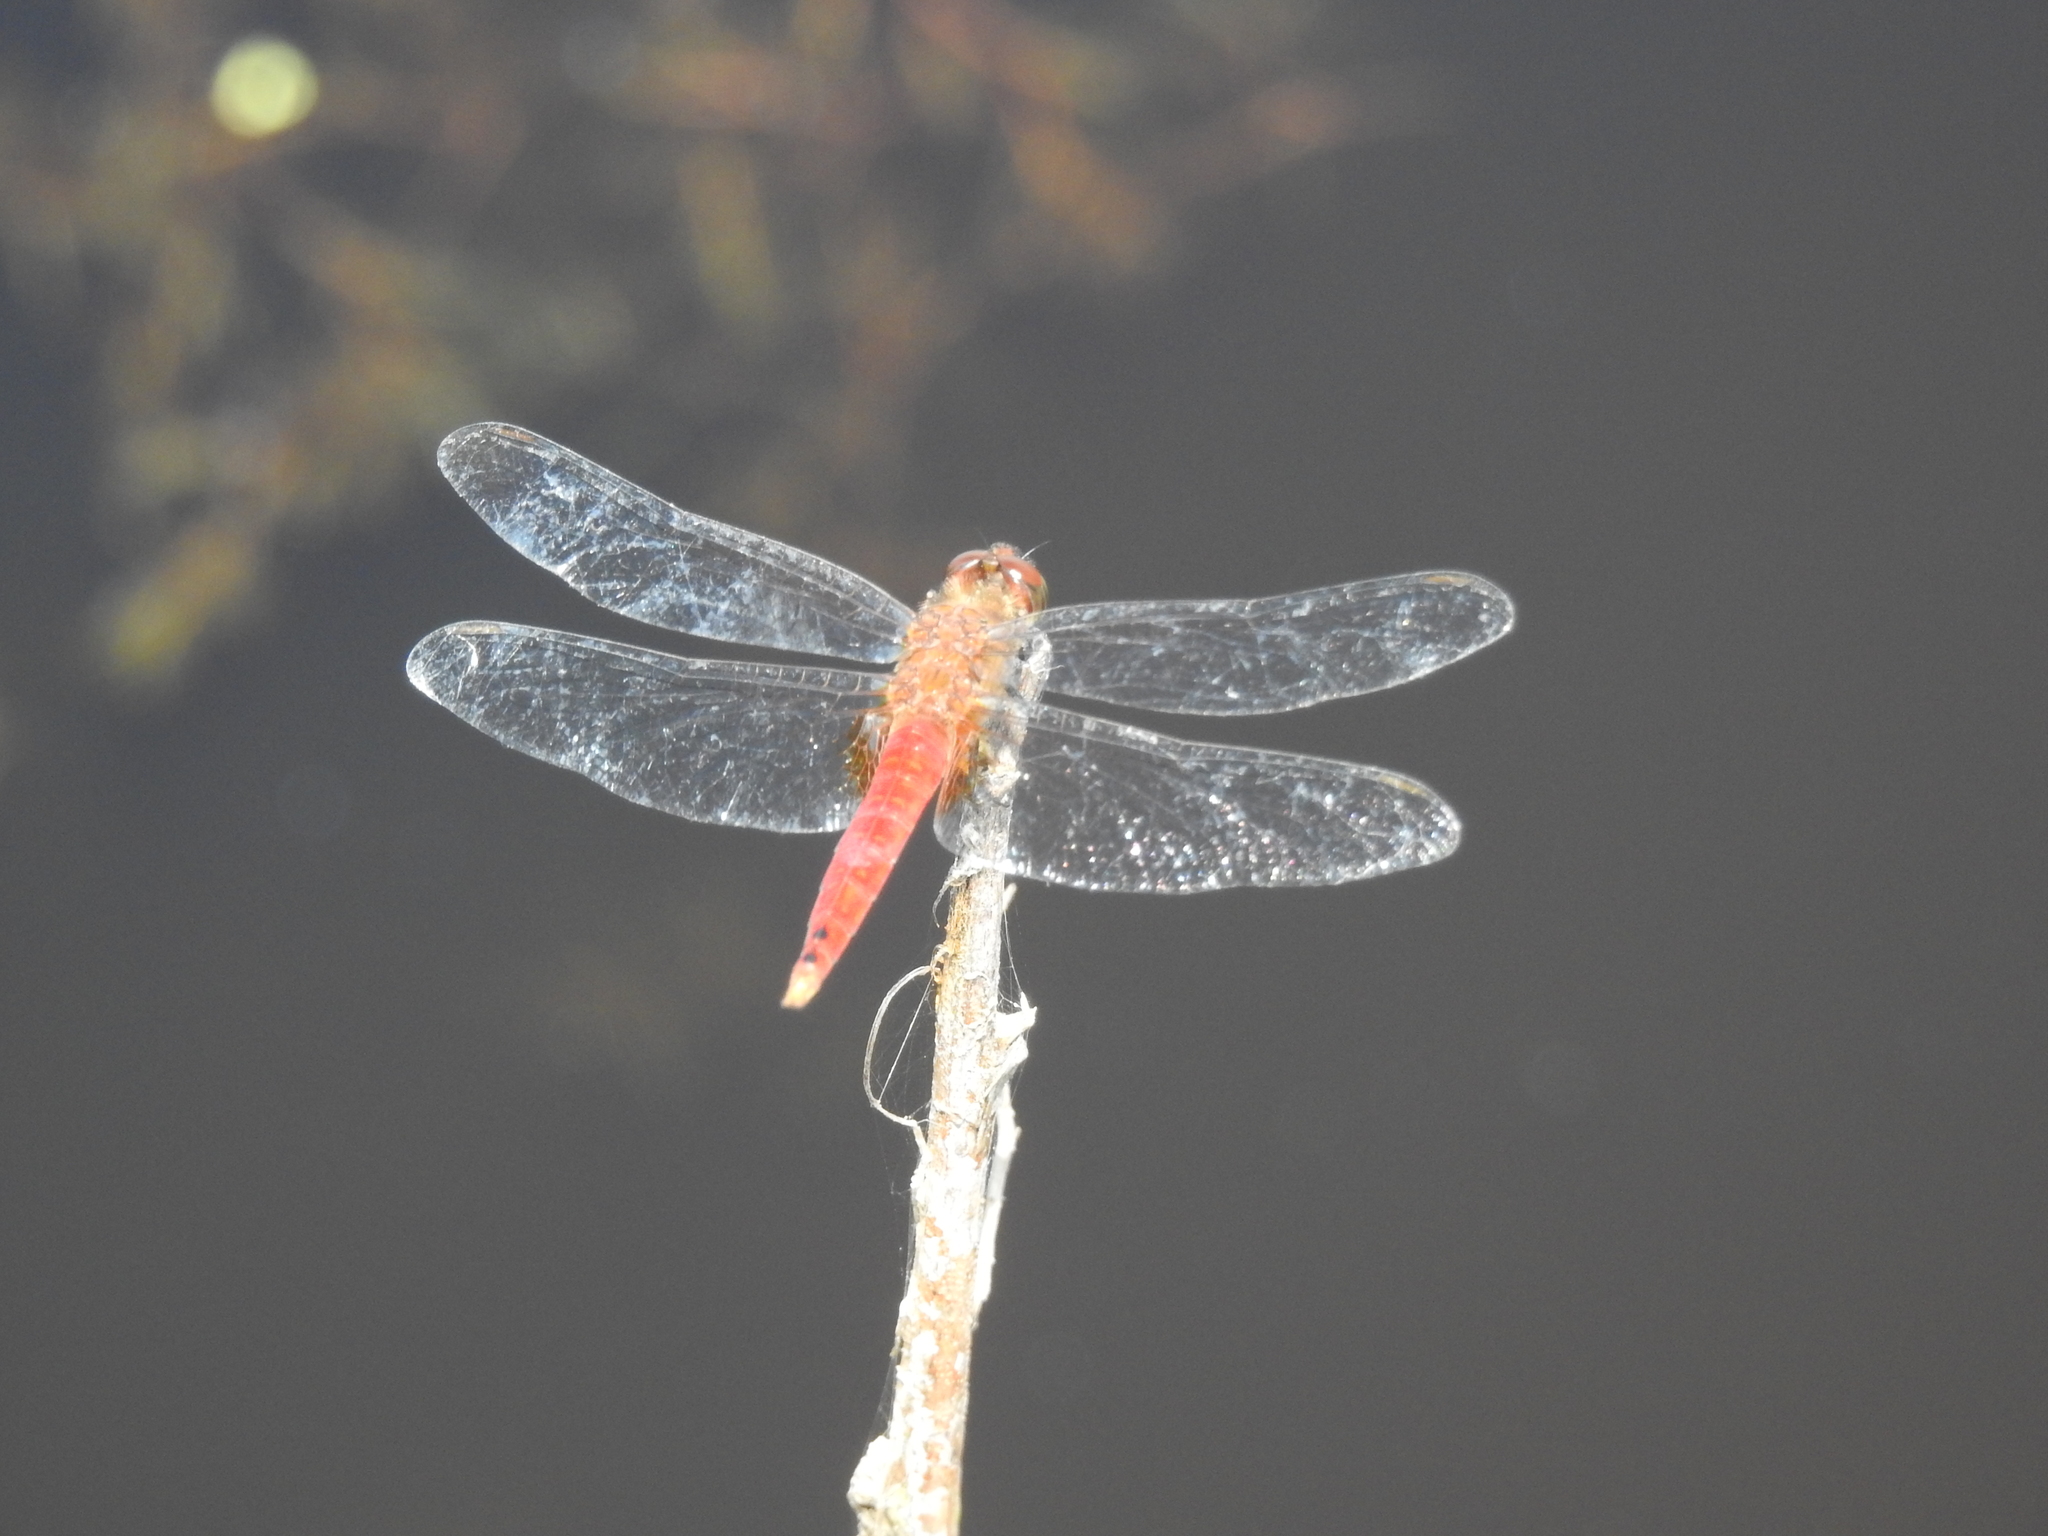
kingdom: Animalia
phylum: Arthropoda
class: Insecta
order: Odonata
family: Libellulidae
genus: Brachymesia
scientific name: Brachymesia furcata
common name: Red-taled pennant
